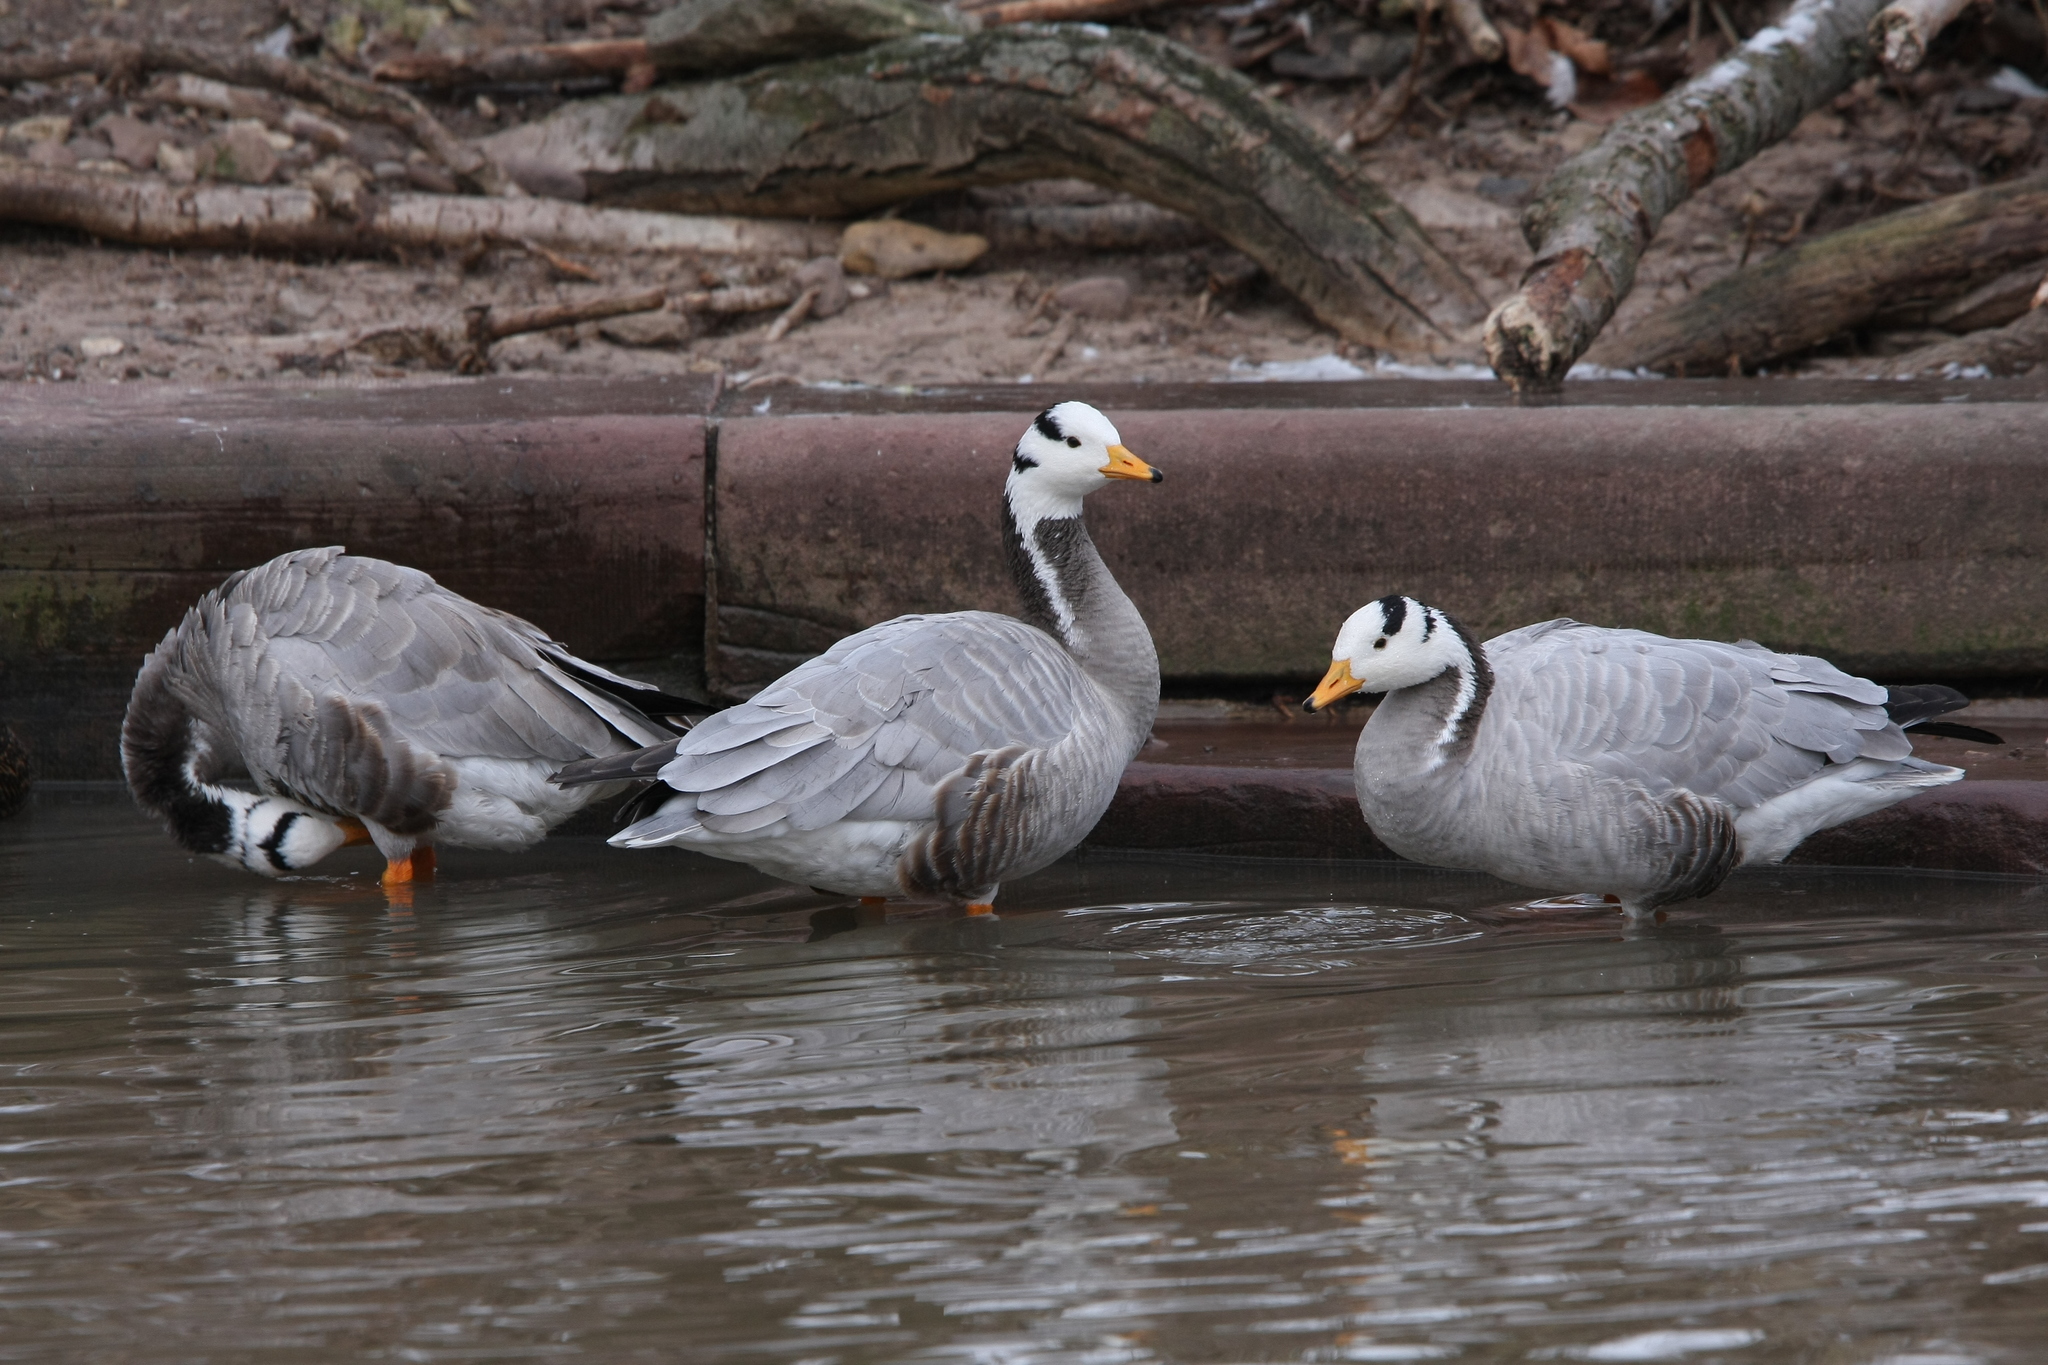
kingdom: Animalia
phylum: Chordata
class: Aves
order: Anseriformes
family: Anatidae
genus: Anser
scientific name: Anser indicus
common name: Bar-headed goose
